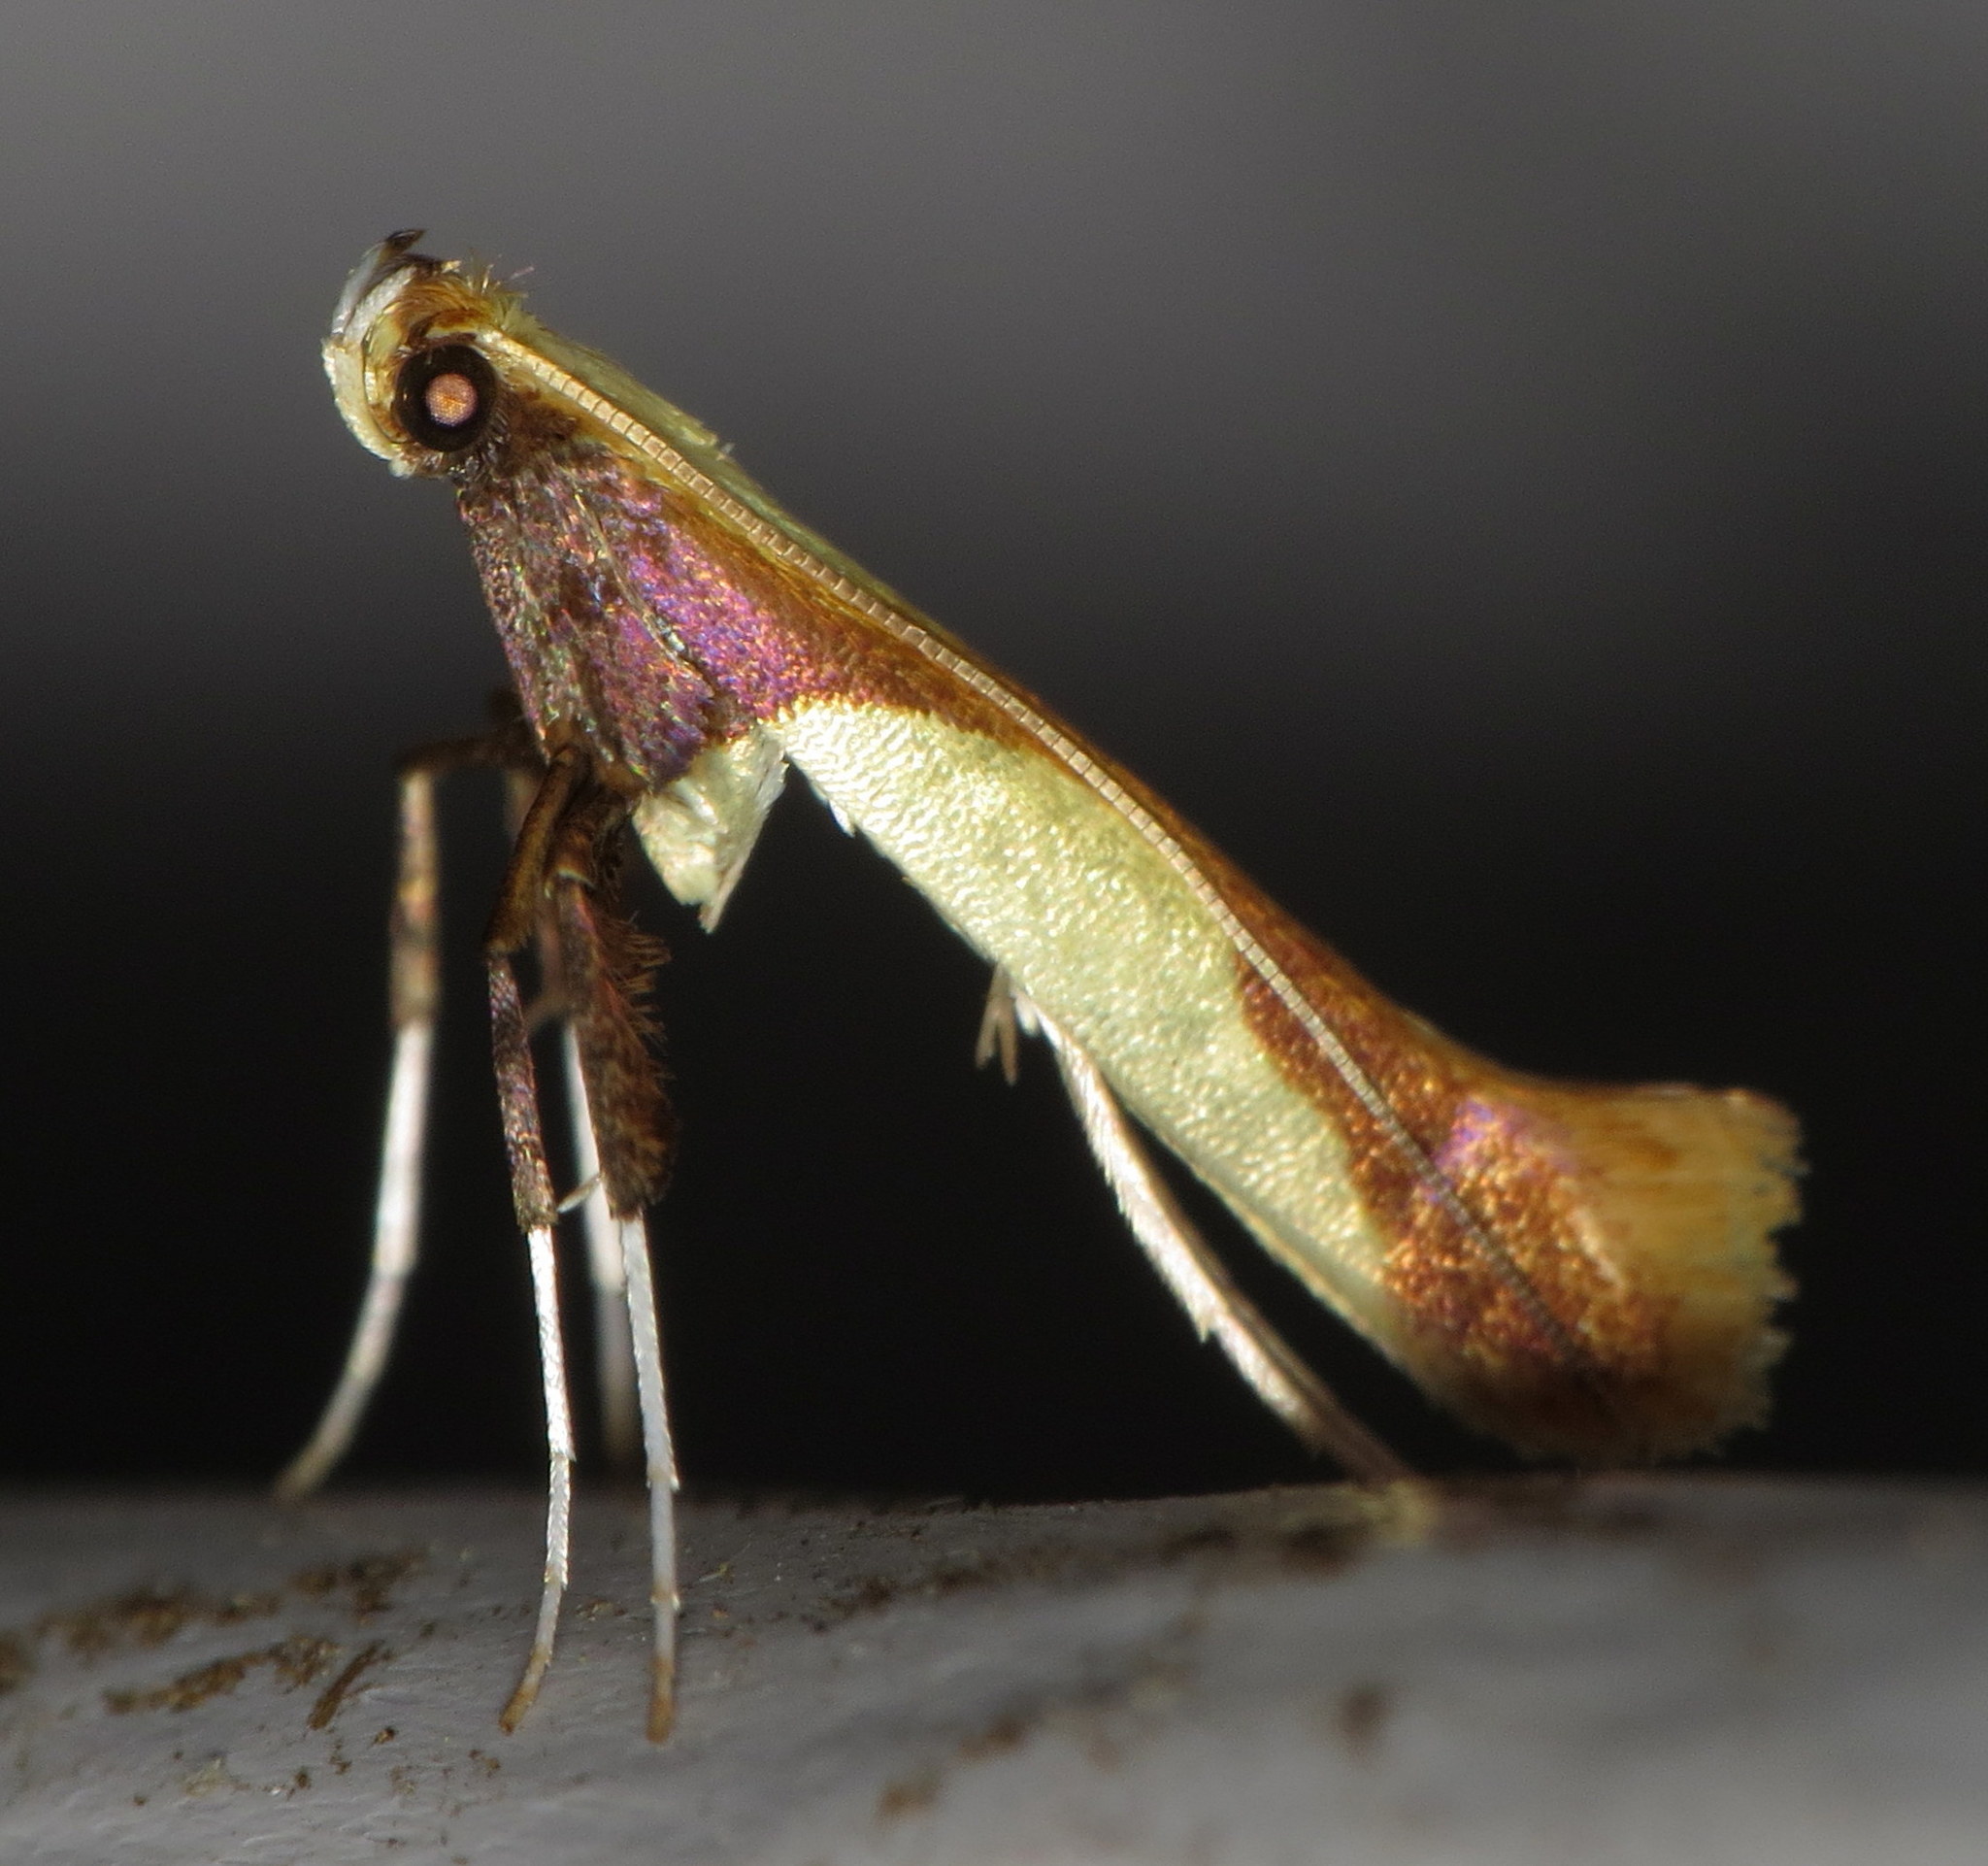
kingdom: Animalia
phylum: Arthropoda
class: Insecta
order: Lepidoptera
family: Gracillariidae
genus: Caloptilia
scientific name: Caloptilia superbifrontella
